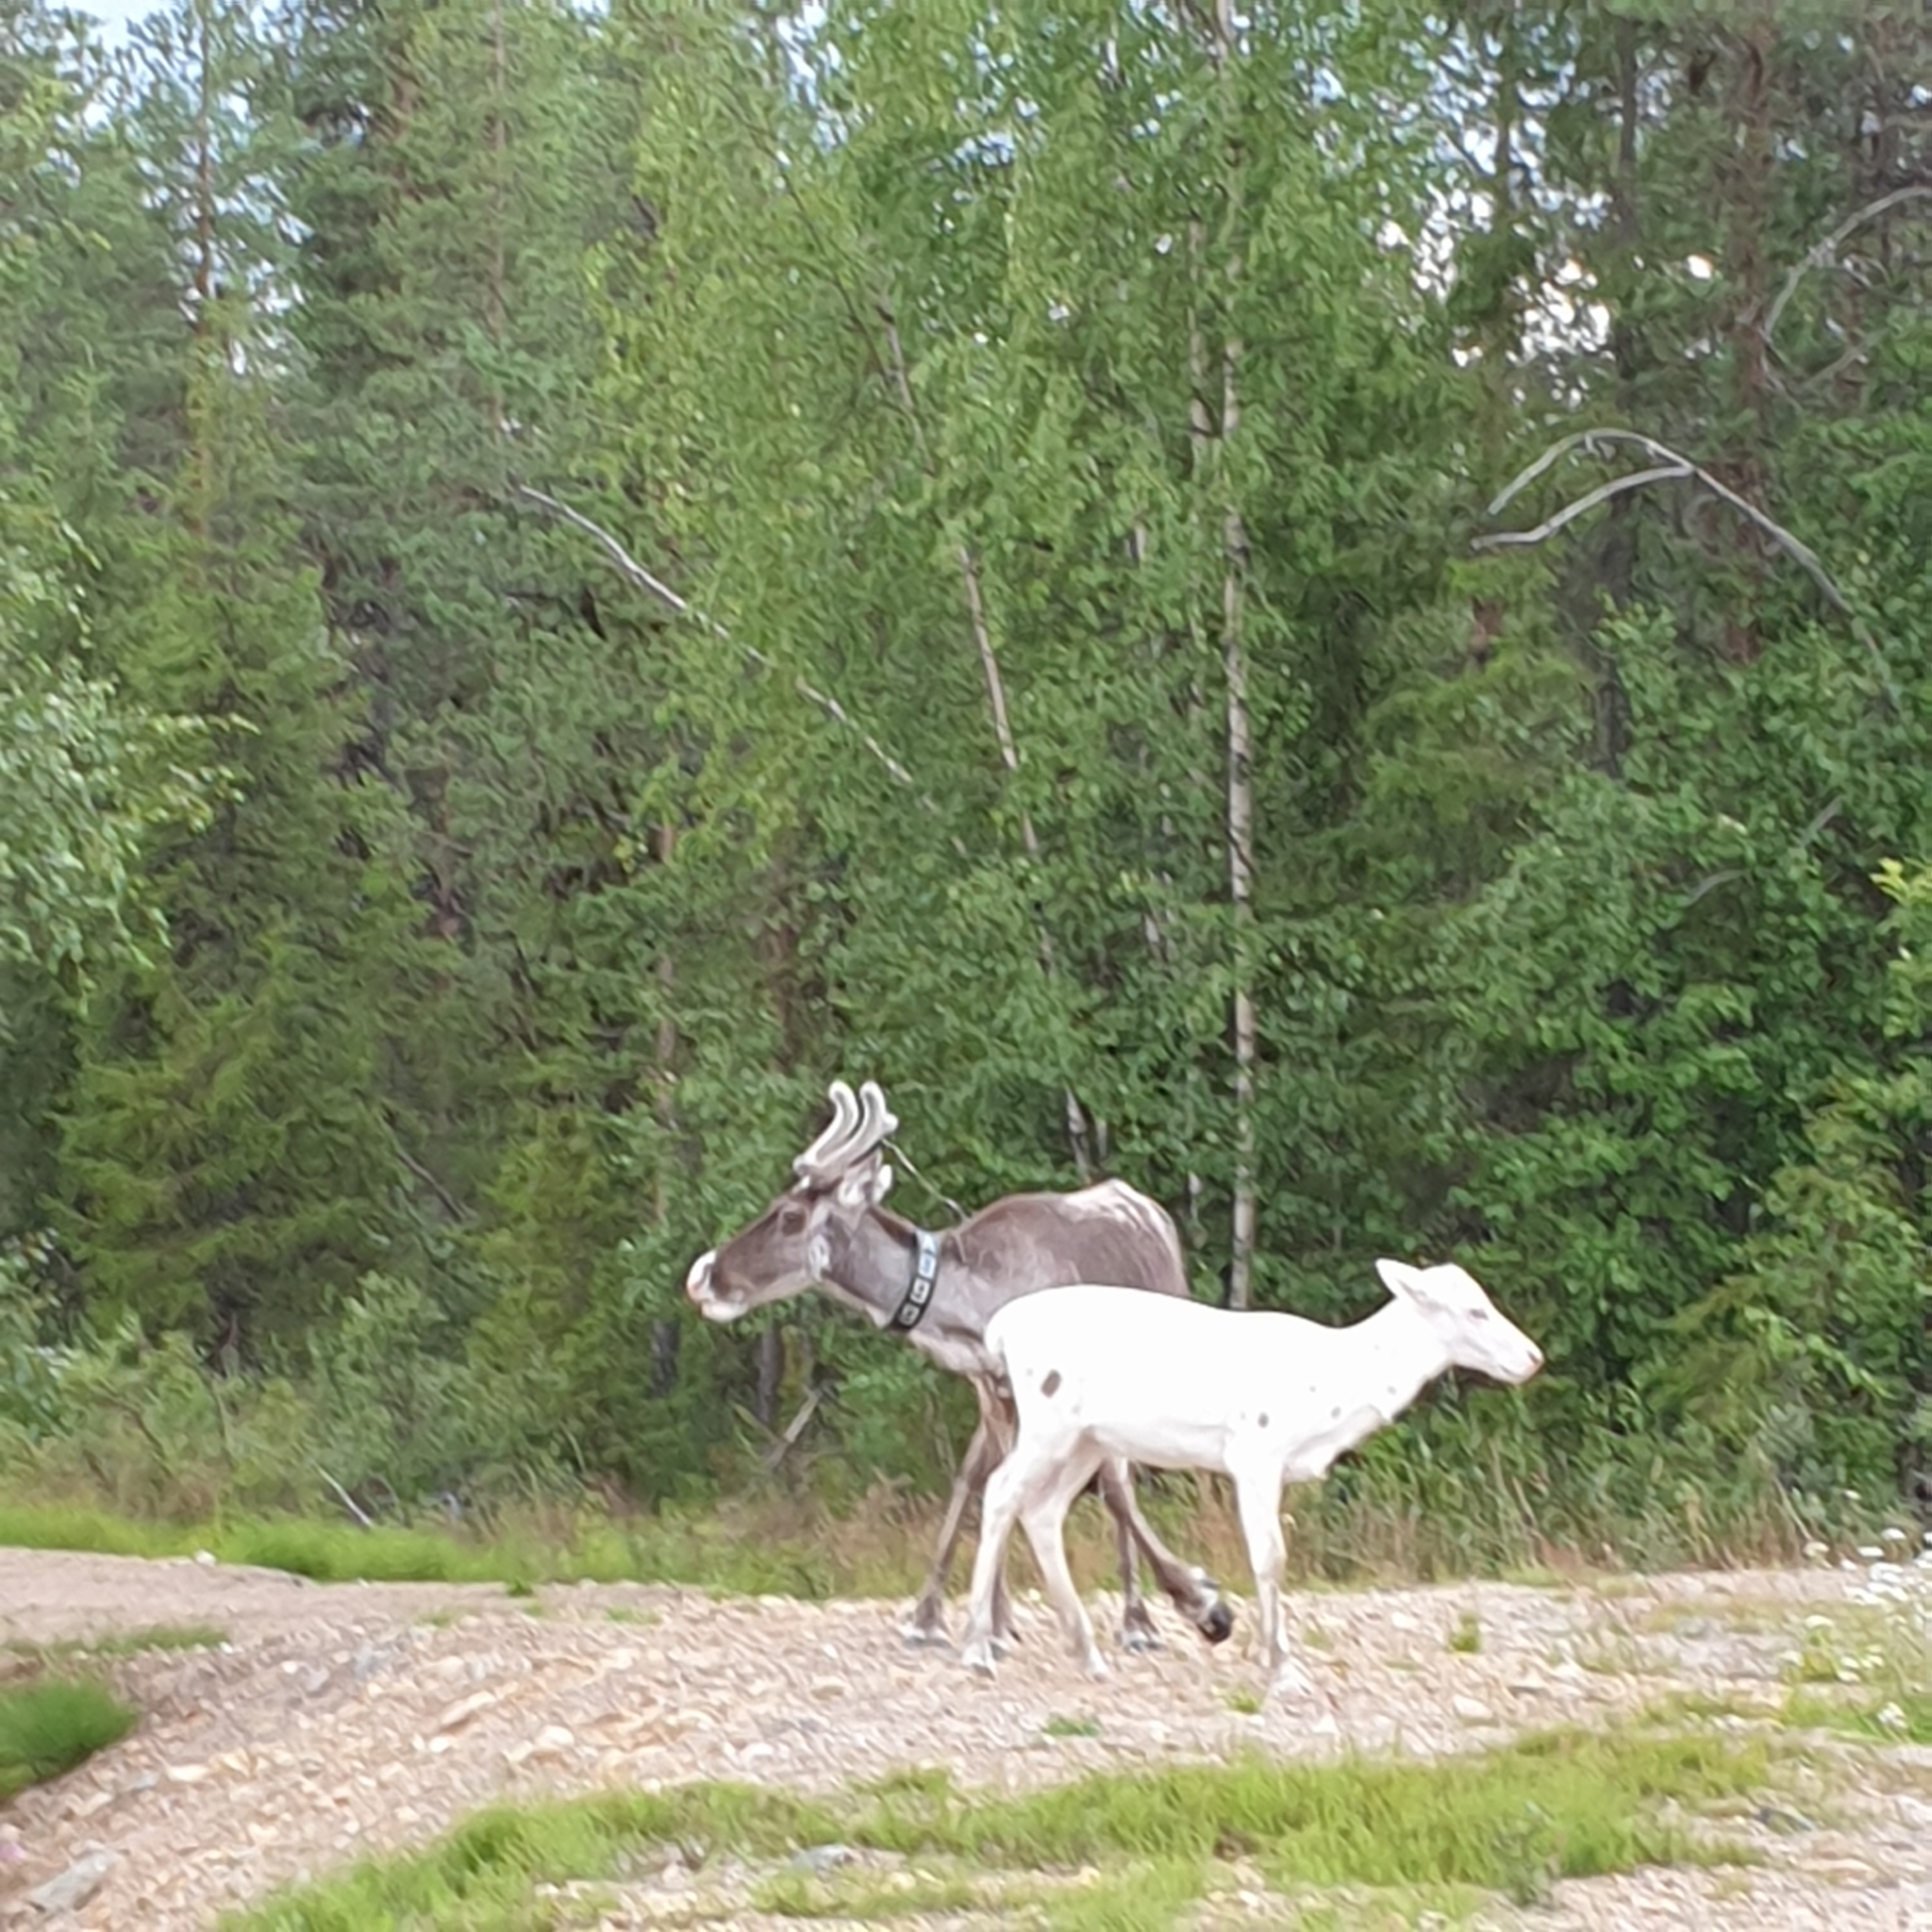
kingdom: Animalia
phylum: Chordata
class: Mammalia
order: Artiodactyla
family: Cervidae
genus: Rangifer
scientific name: Rangifer tarandus
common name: Reindeer
